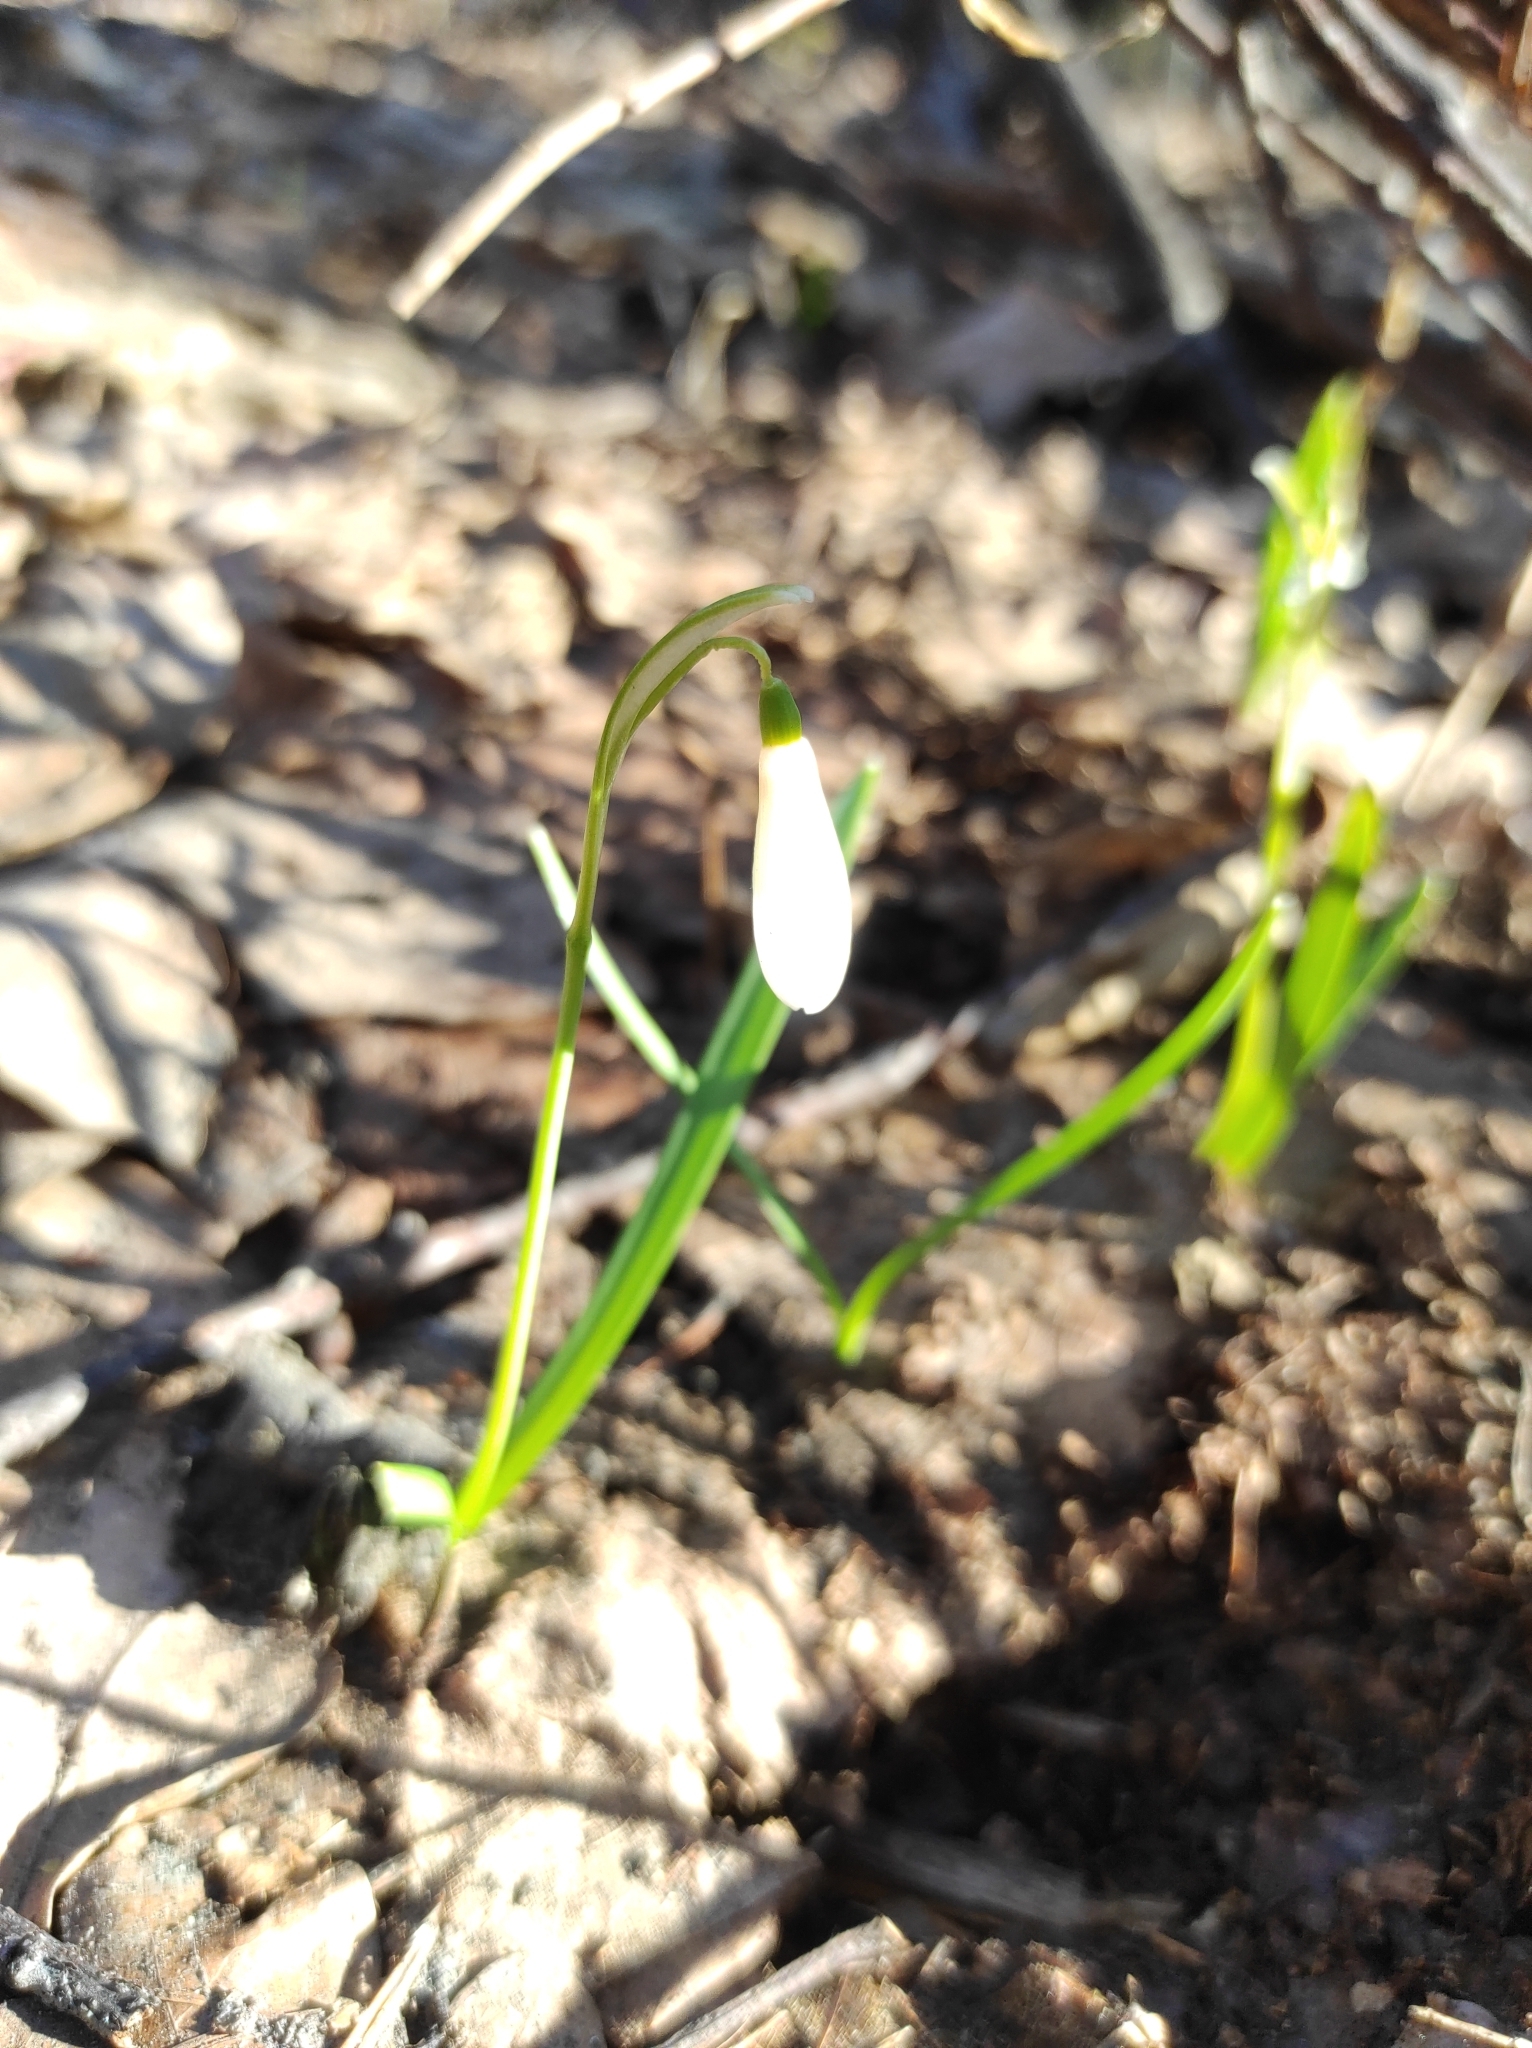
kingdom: Plantae
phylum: Tracheophyta
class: Liliopsida
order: Asparagales
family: Amaryllidaceae
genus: Galanthus
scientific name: Galanthus nivalis
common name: Snowdrop
